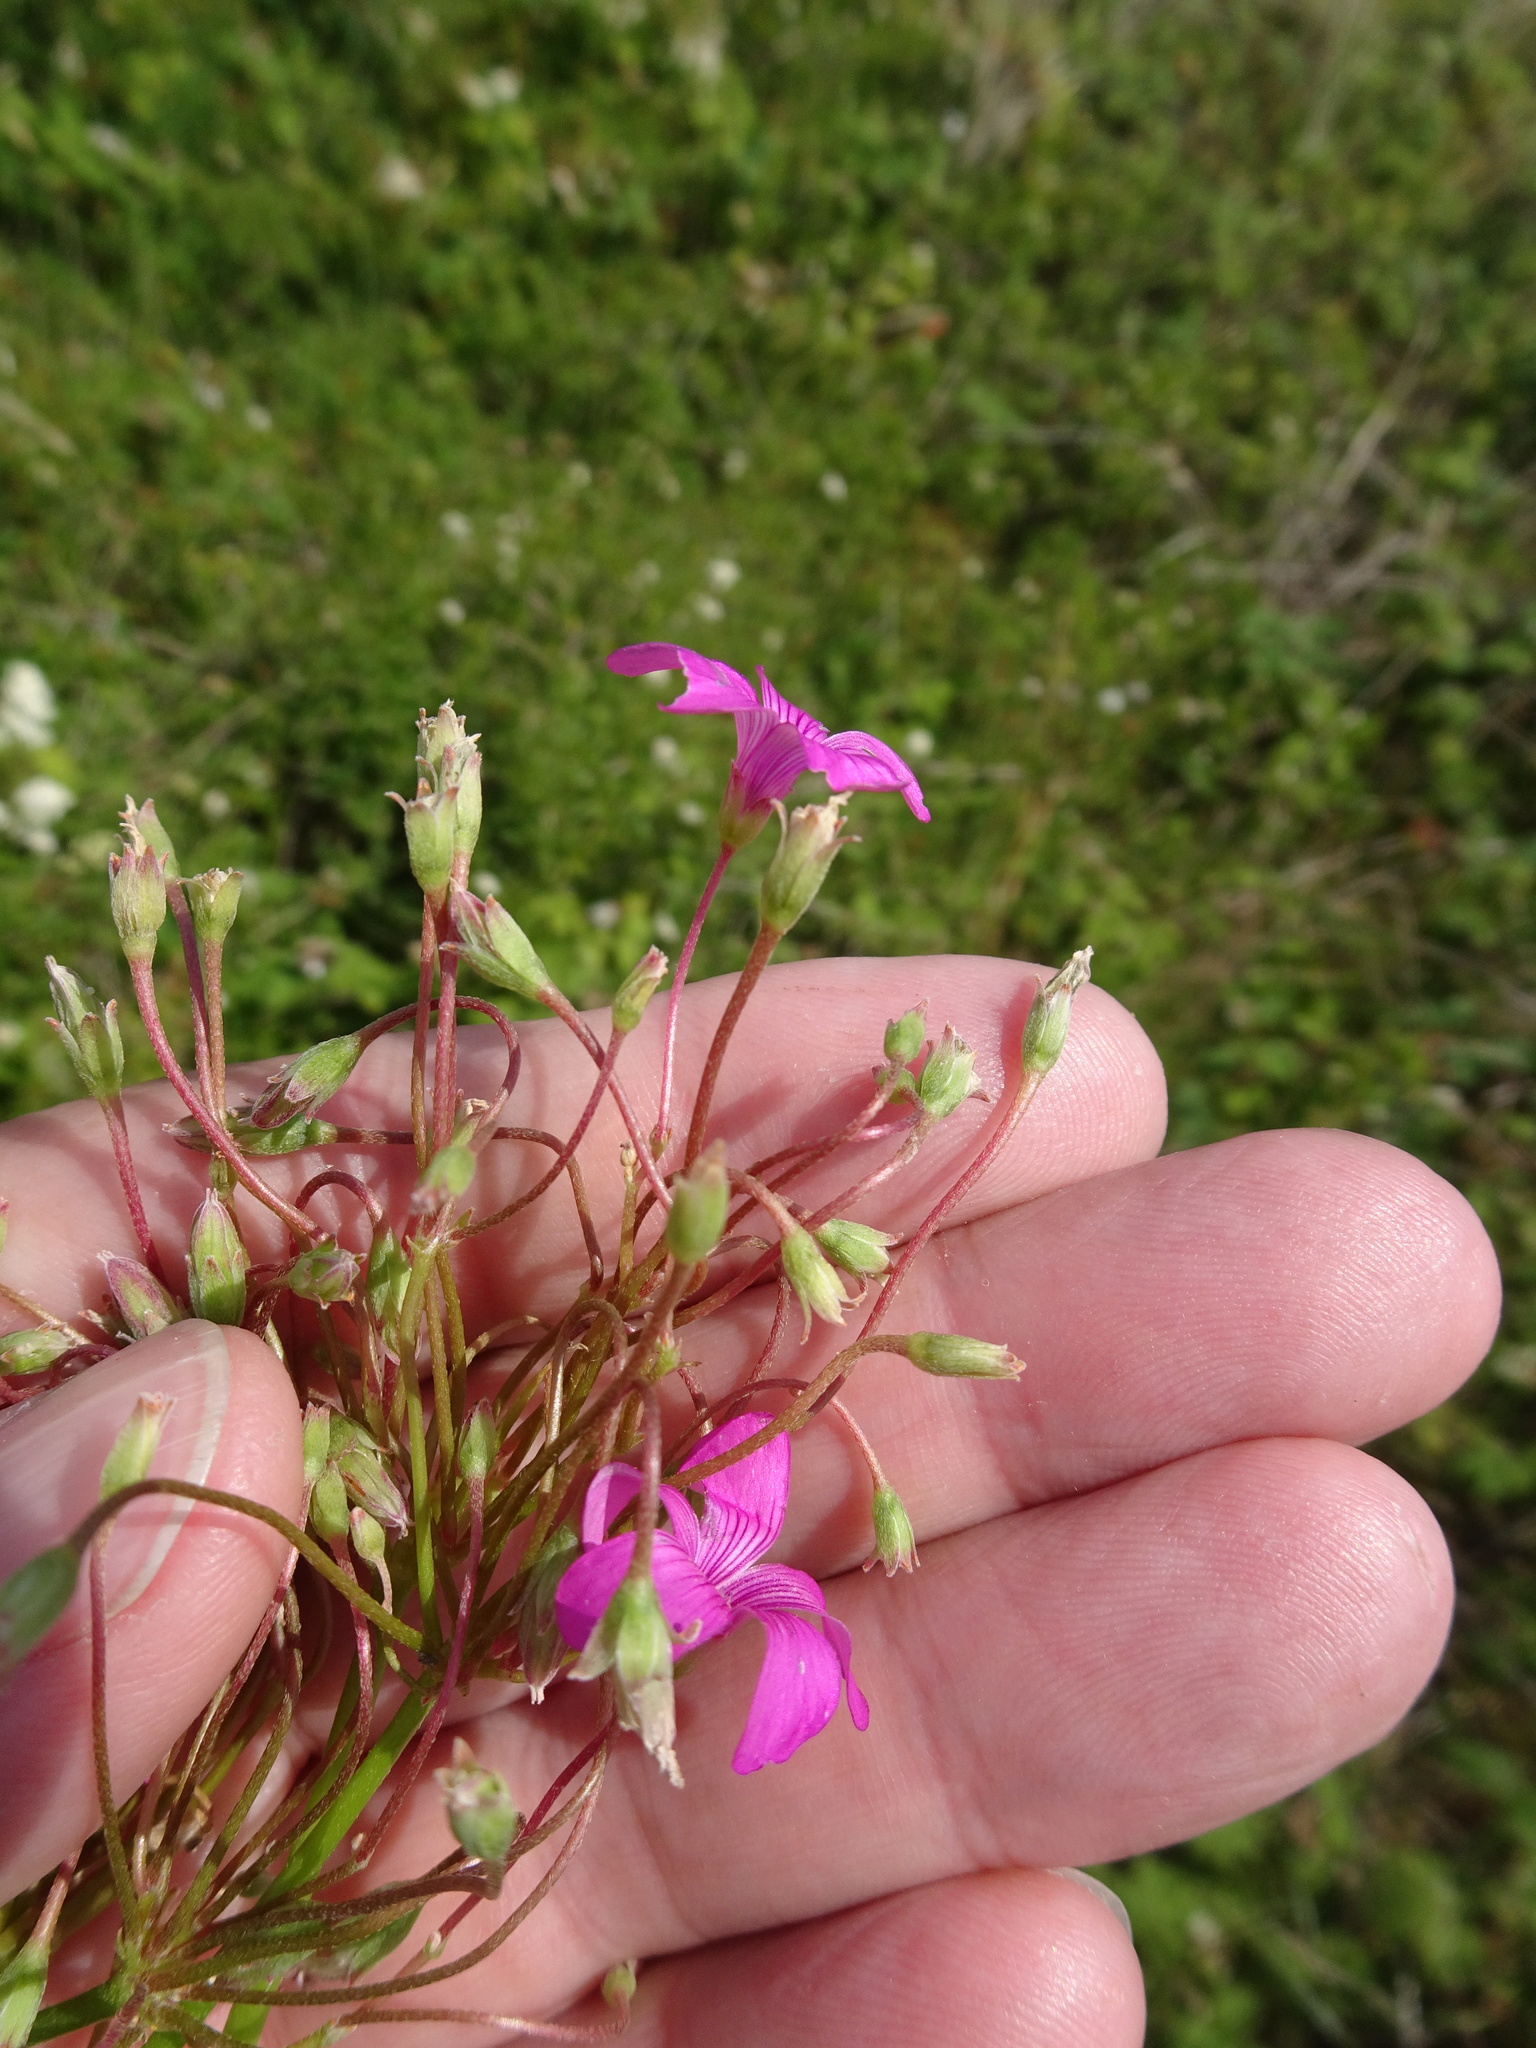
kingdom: Plantae
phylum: Tracheophyta
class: Magnoliopsida
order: Oxalidales
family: Oxalidaceae
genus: Oxalis
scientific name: Oxalis articulata
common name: Pink-sorrel
